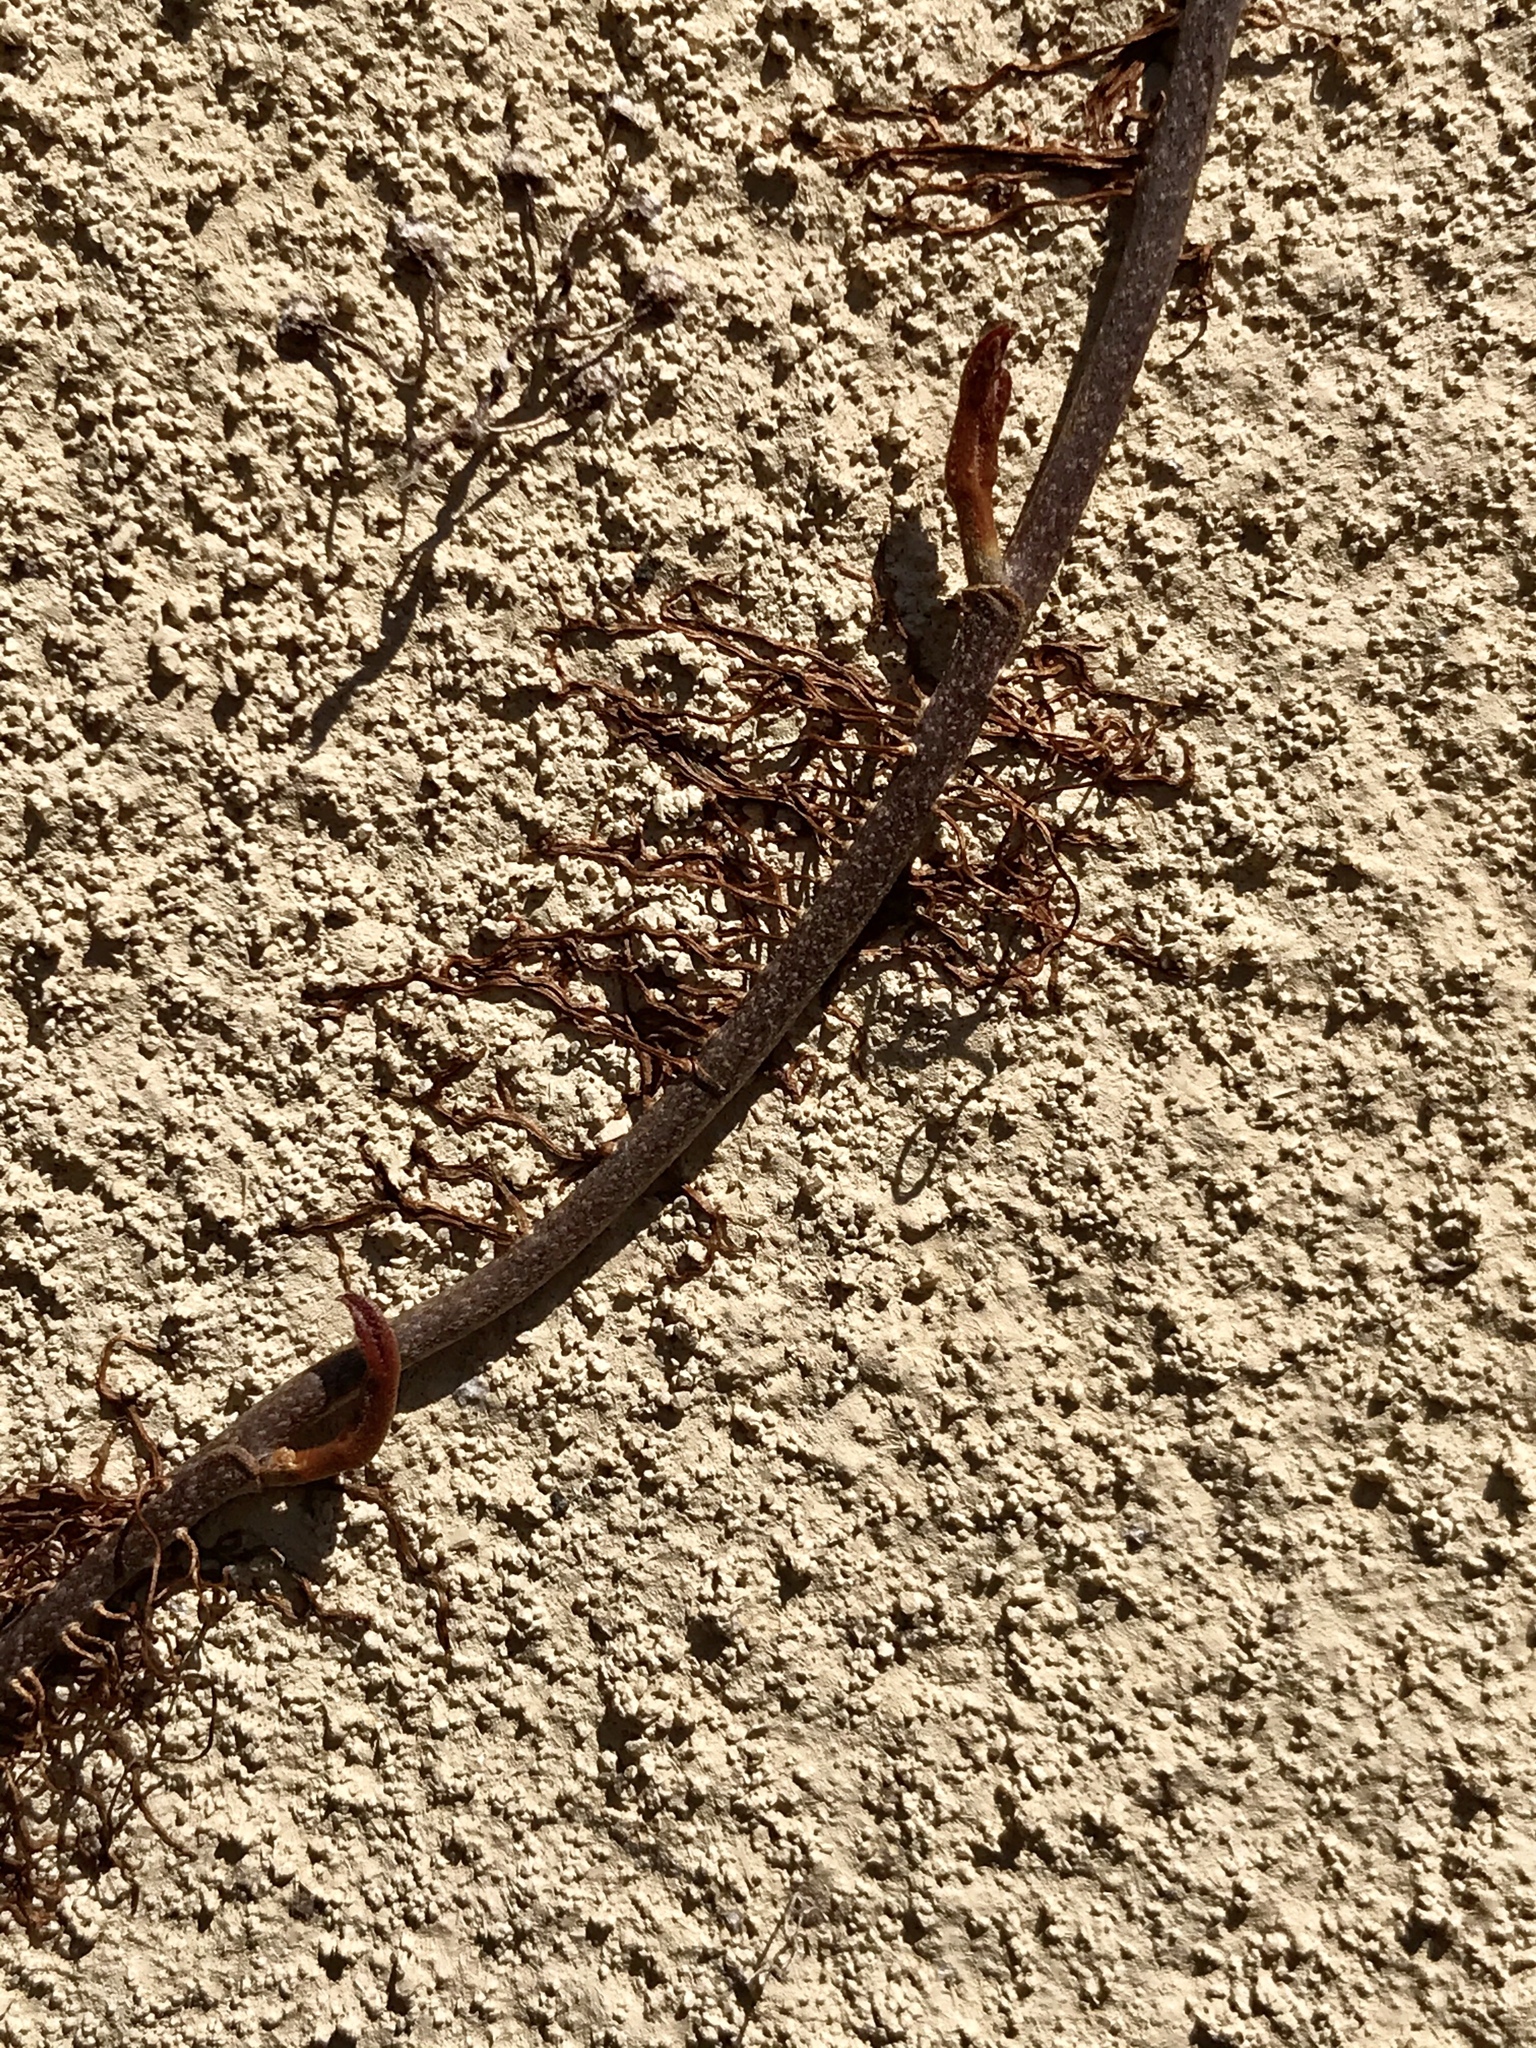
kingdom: Plantae
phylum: Tracheophyta
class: Magnoliopsida
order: Vitales
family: Vitaceae
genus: Parthenocissus
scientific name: Parthenocissus tricuspidata
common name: Boston ivy
